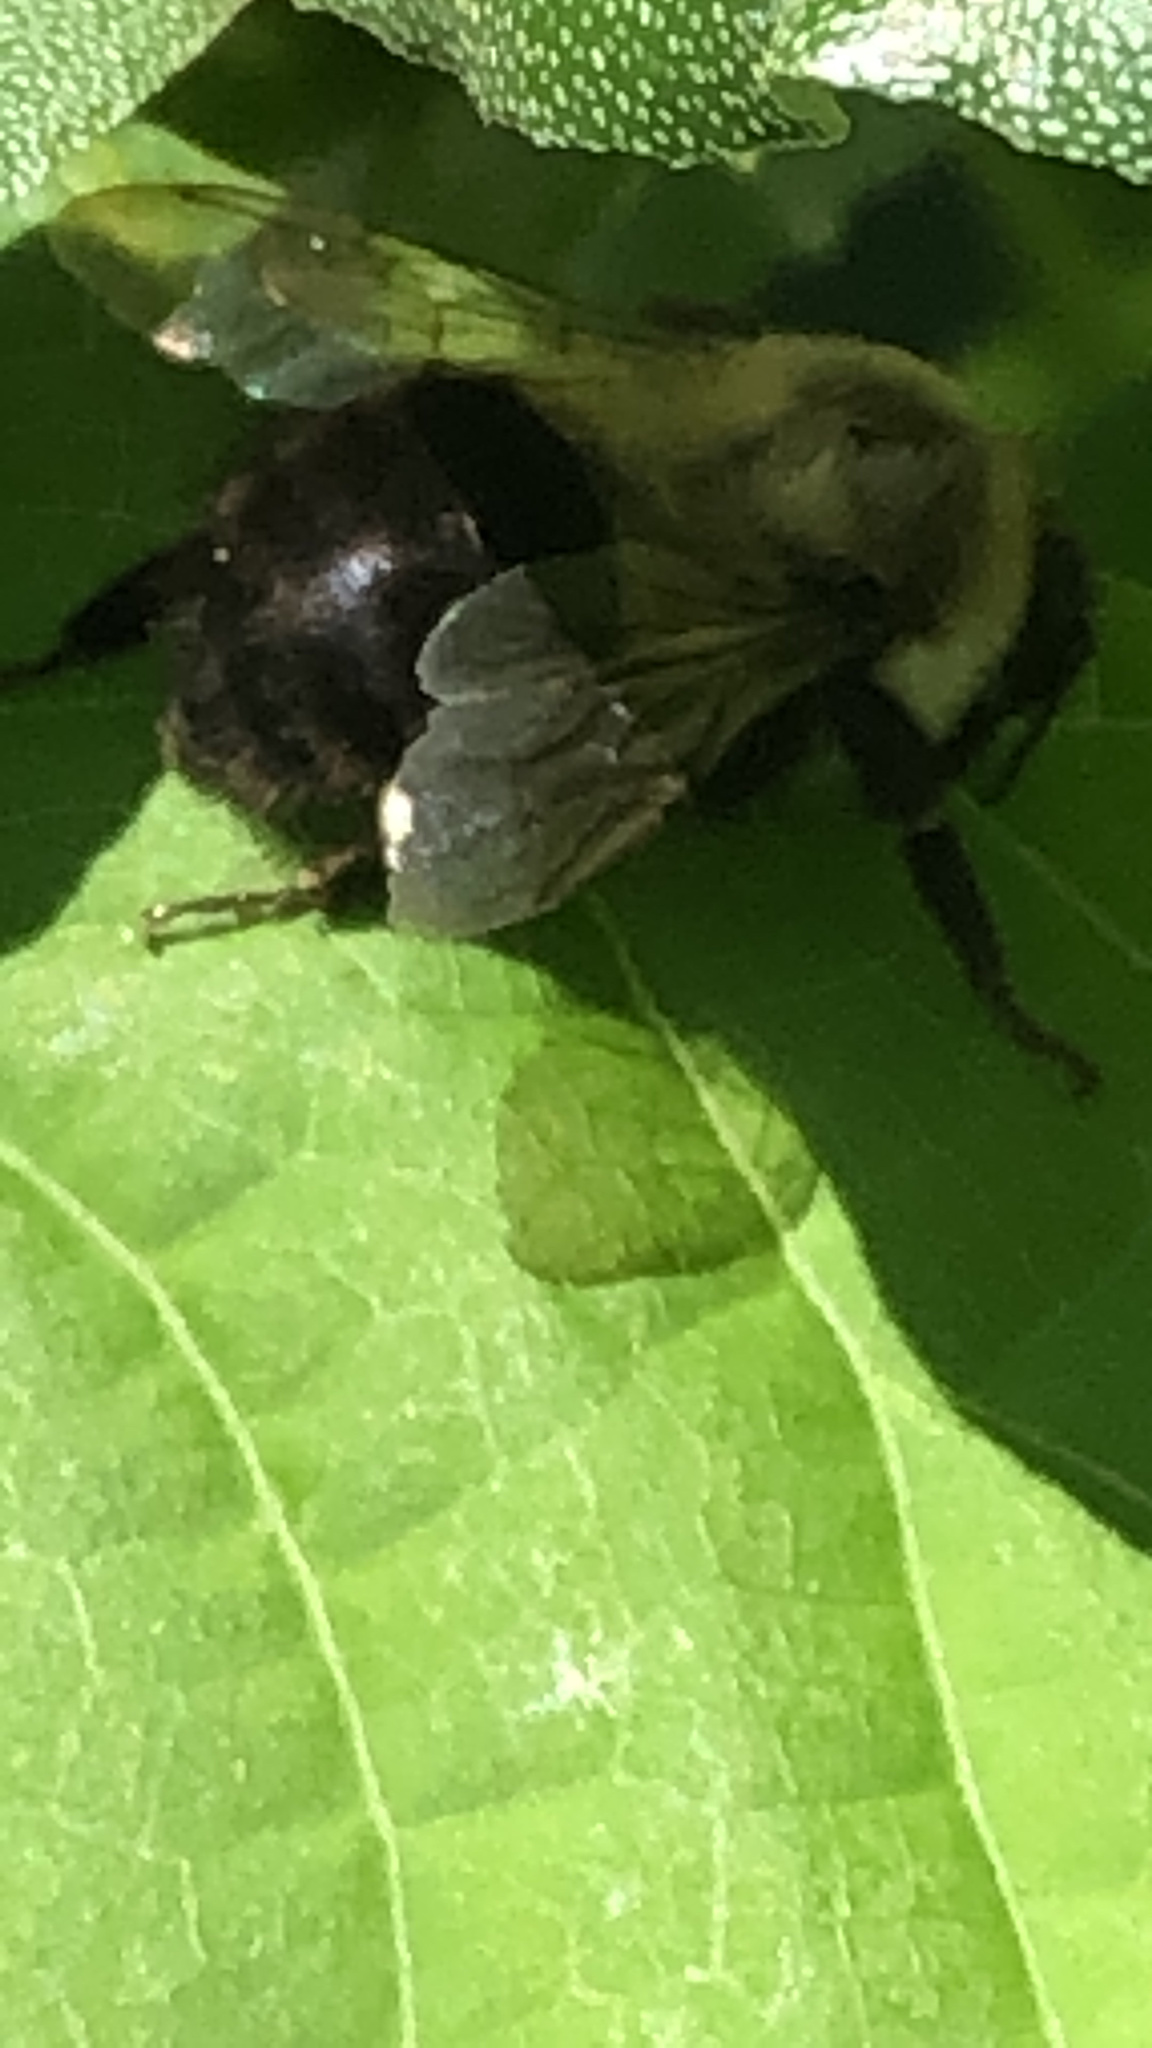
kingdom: Animalia
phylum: Arthropoda
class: Insecta
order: Hymenoptera
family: Apidae
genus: Bombus
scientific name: Bombus impatiens
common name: Common eastern bumble bee
